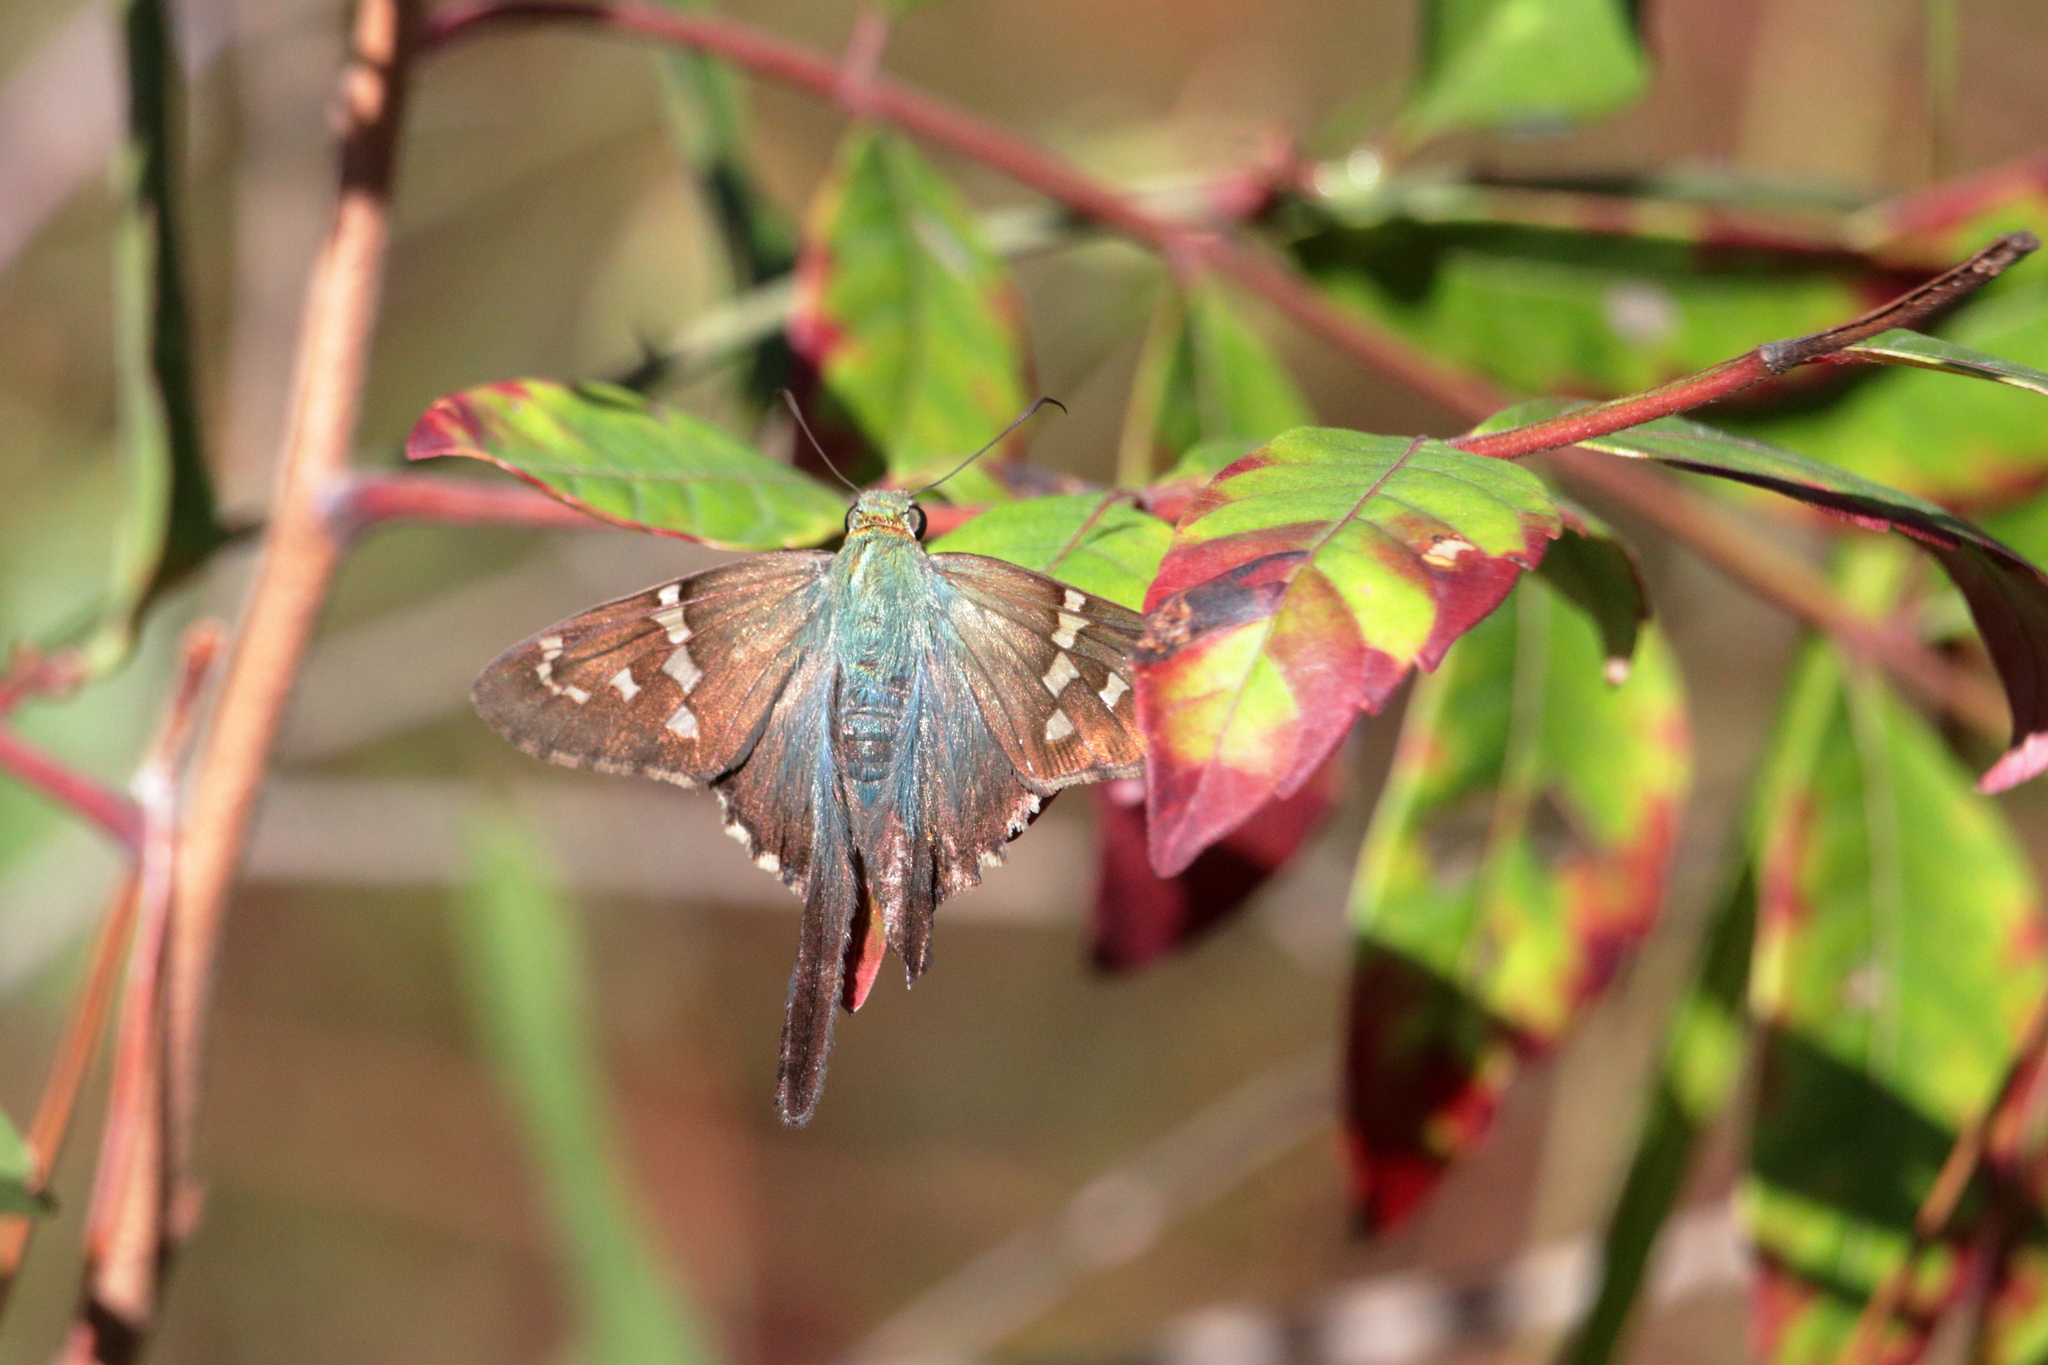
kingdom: Animalia
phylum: Arthropoda
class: Insecta
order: Lepidoptera
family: Hesperiidae
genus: Urbanus
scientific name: Urbanus proteus
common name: Long-tailed skipper
